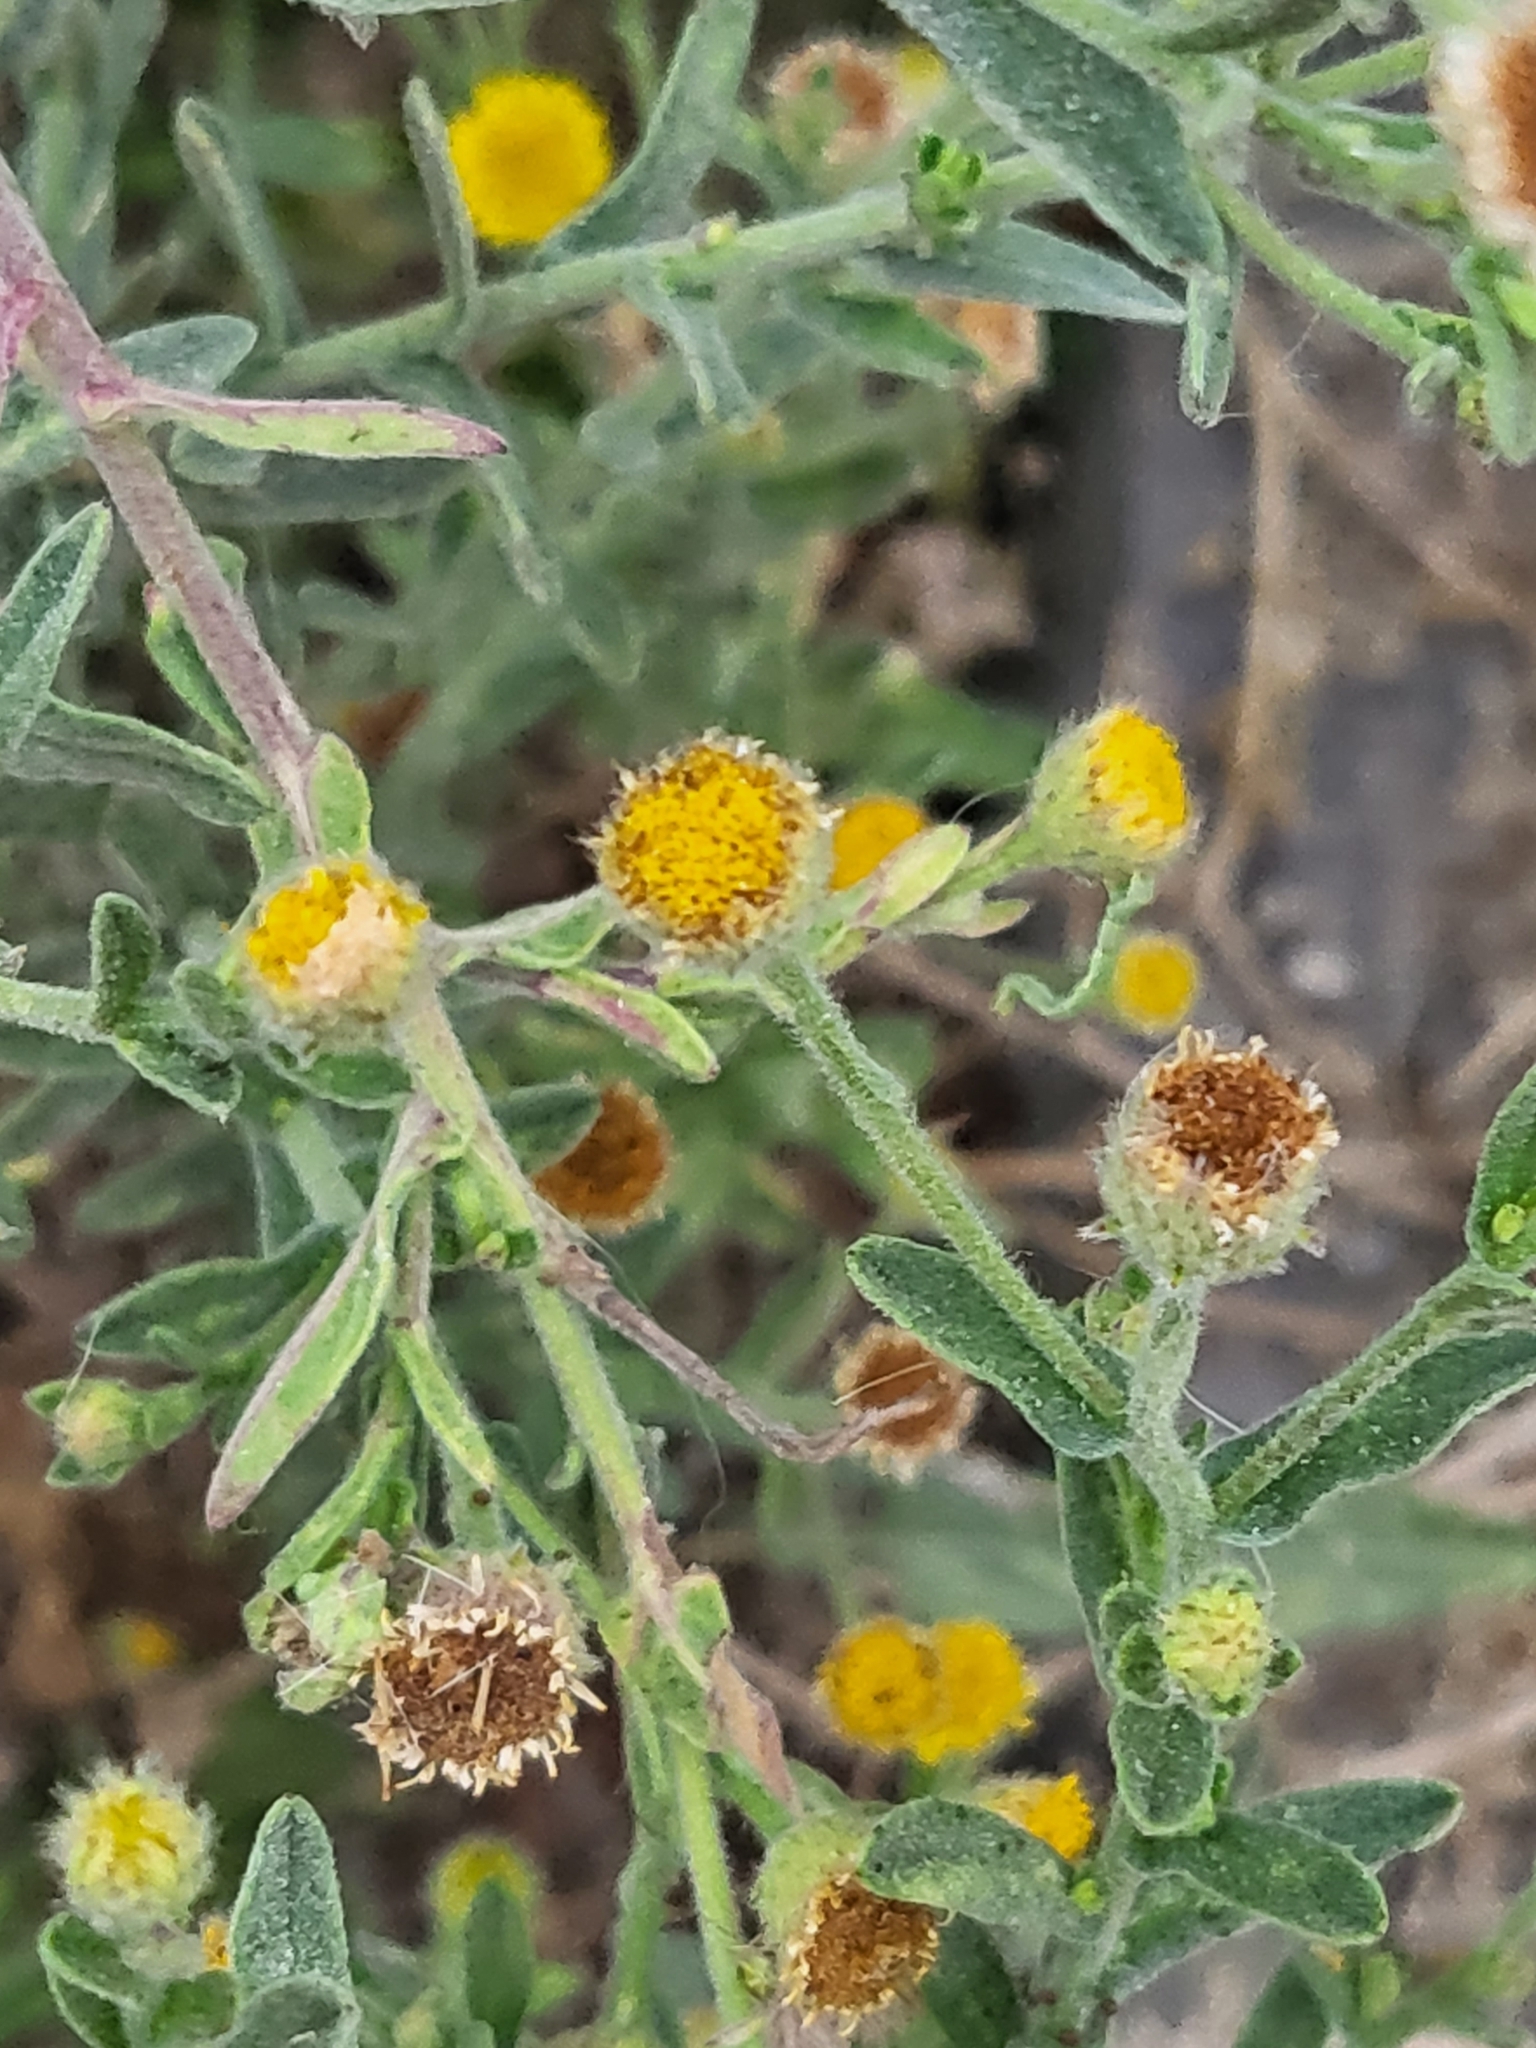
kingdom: Plantae
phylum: Tracheophyta
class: Magnoliopsida
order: Asterales
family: Asteraceae
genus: Pulicaria
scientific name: Pulicaria paludosa
